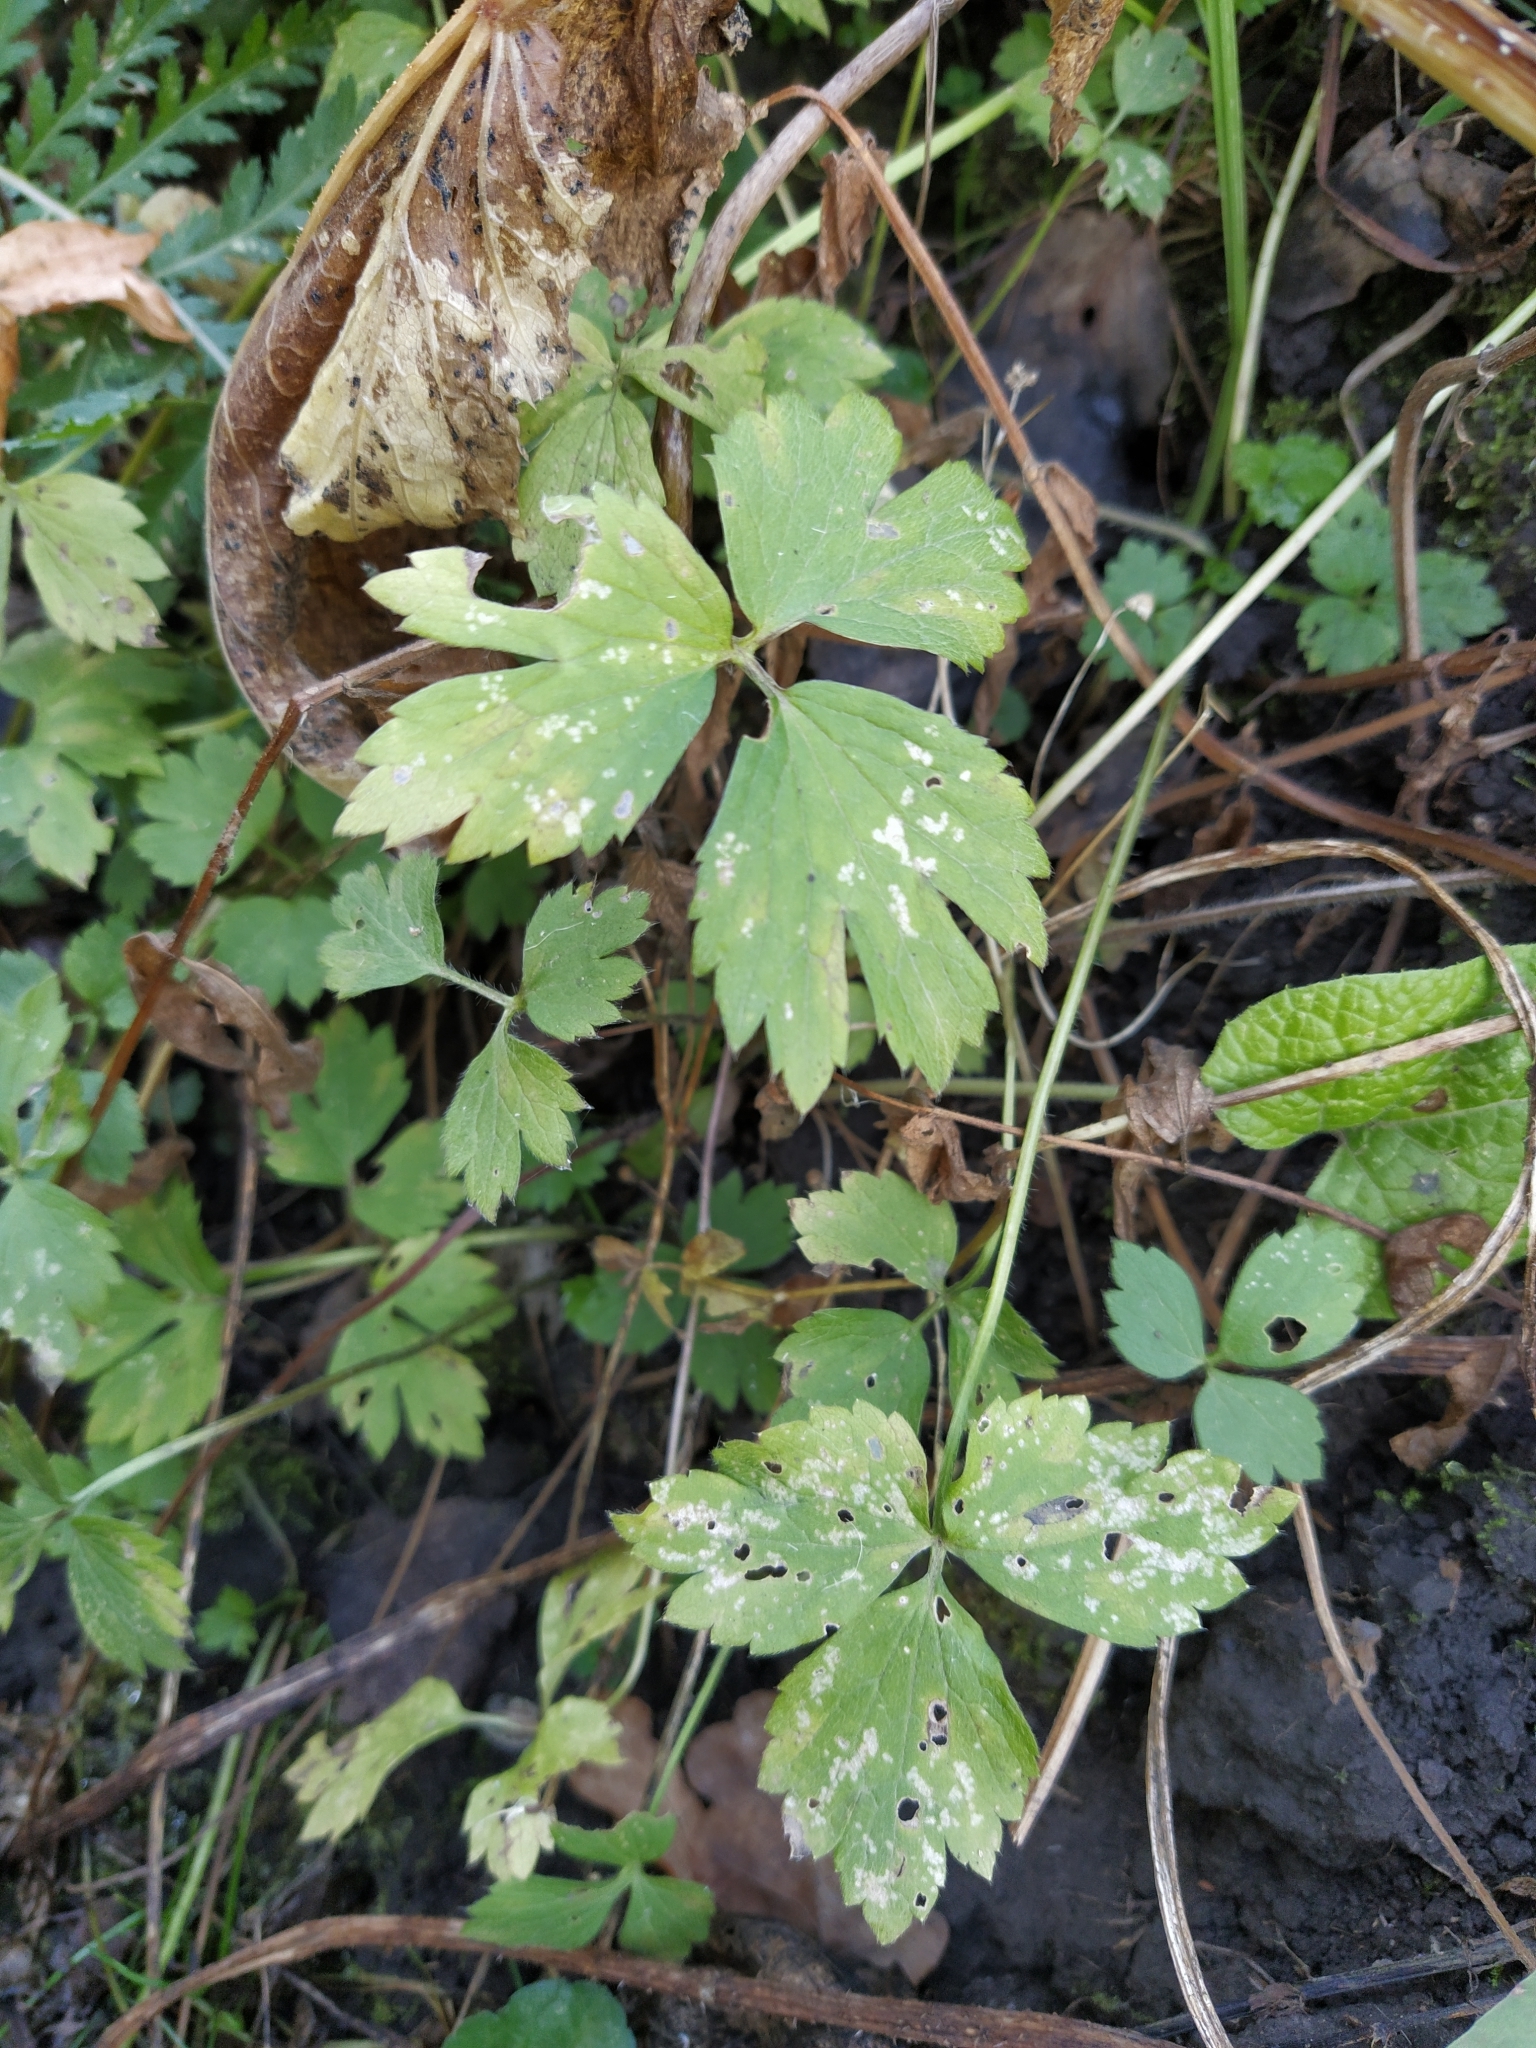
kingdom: Plantae
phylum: Tracheophyta
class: Magnoliopsida
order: Ranunculales
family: Ranunculaceae
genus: Ranunculus
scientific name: Ranunculus repens
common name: Creeping buttercup
